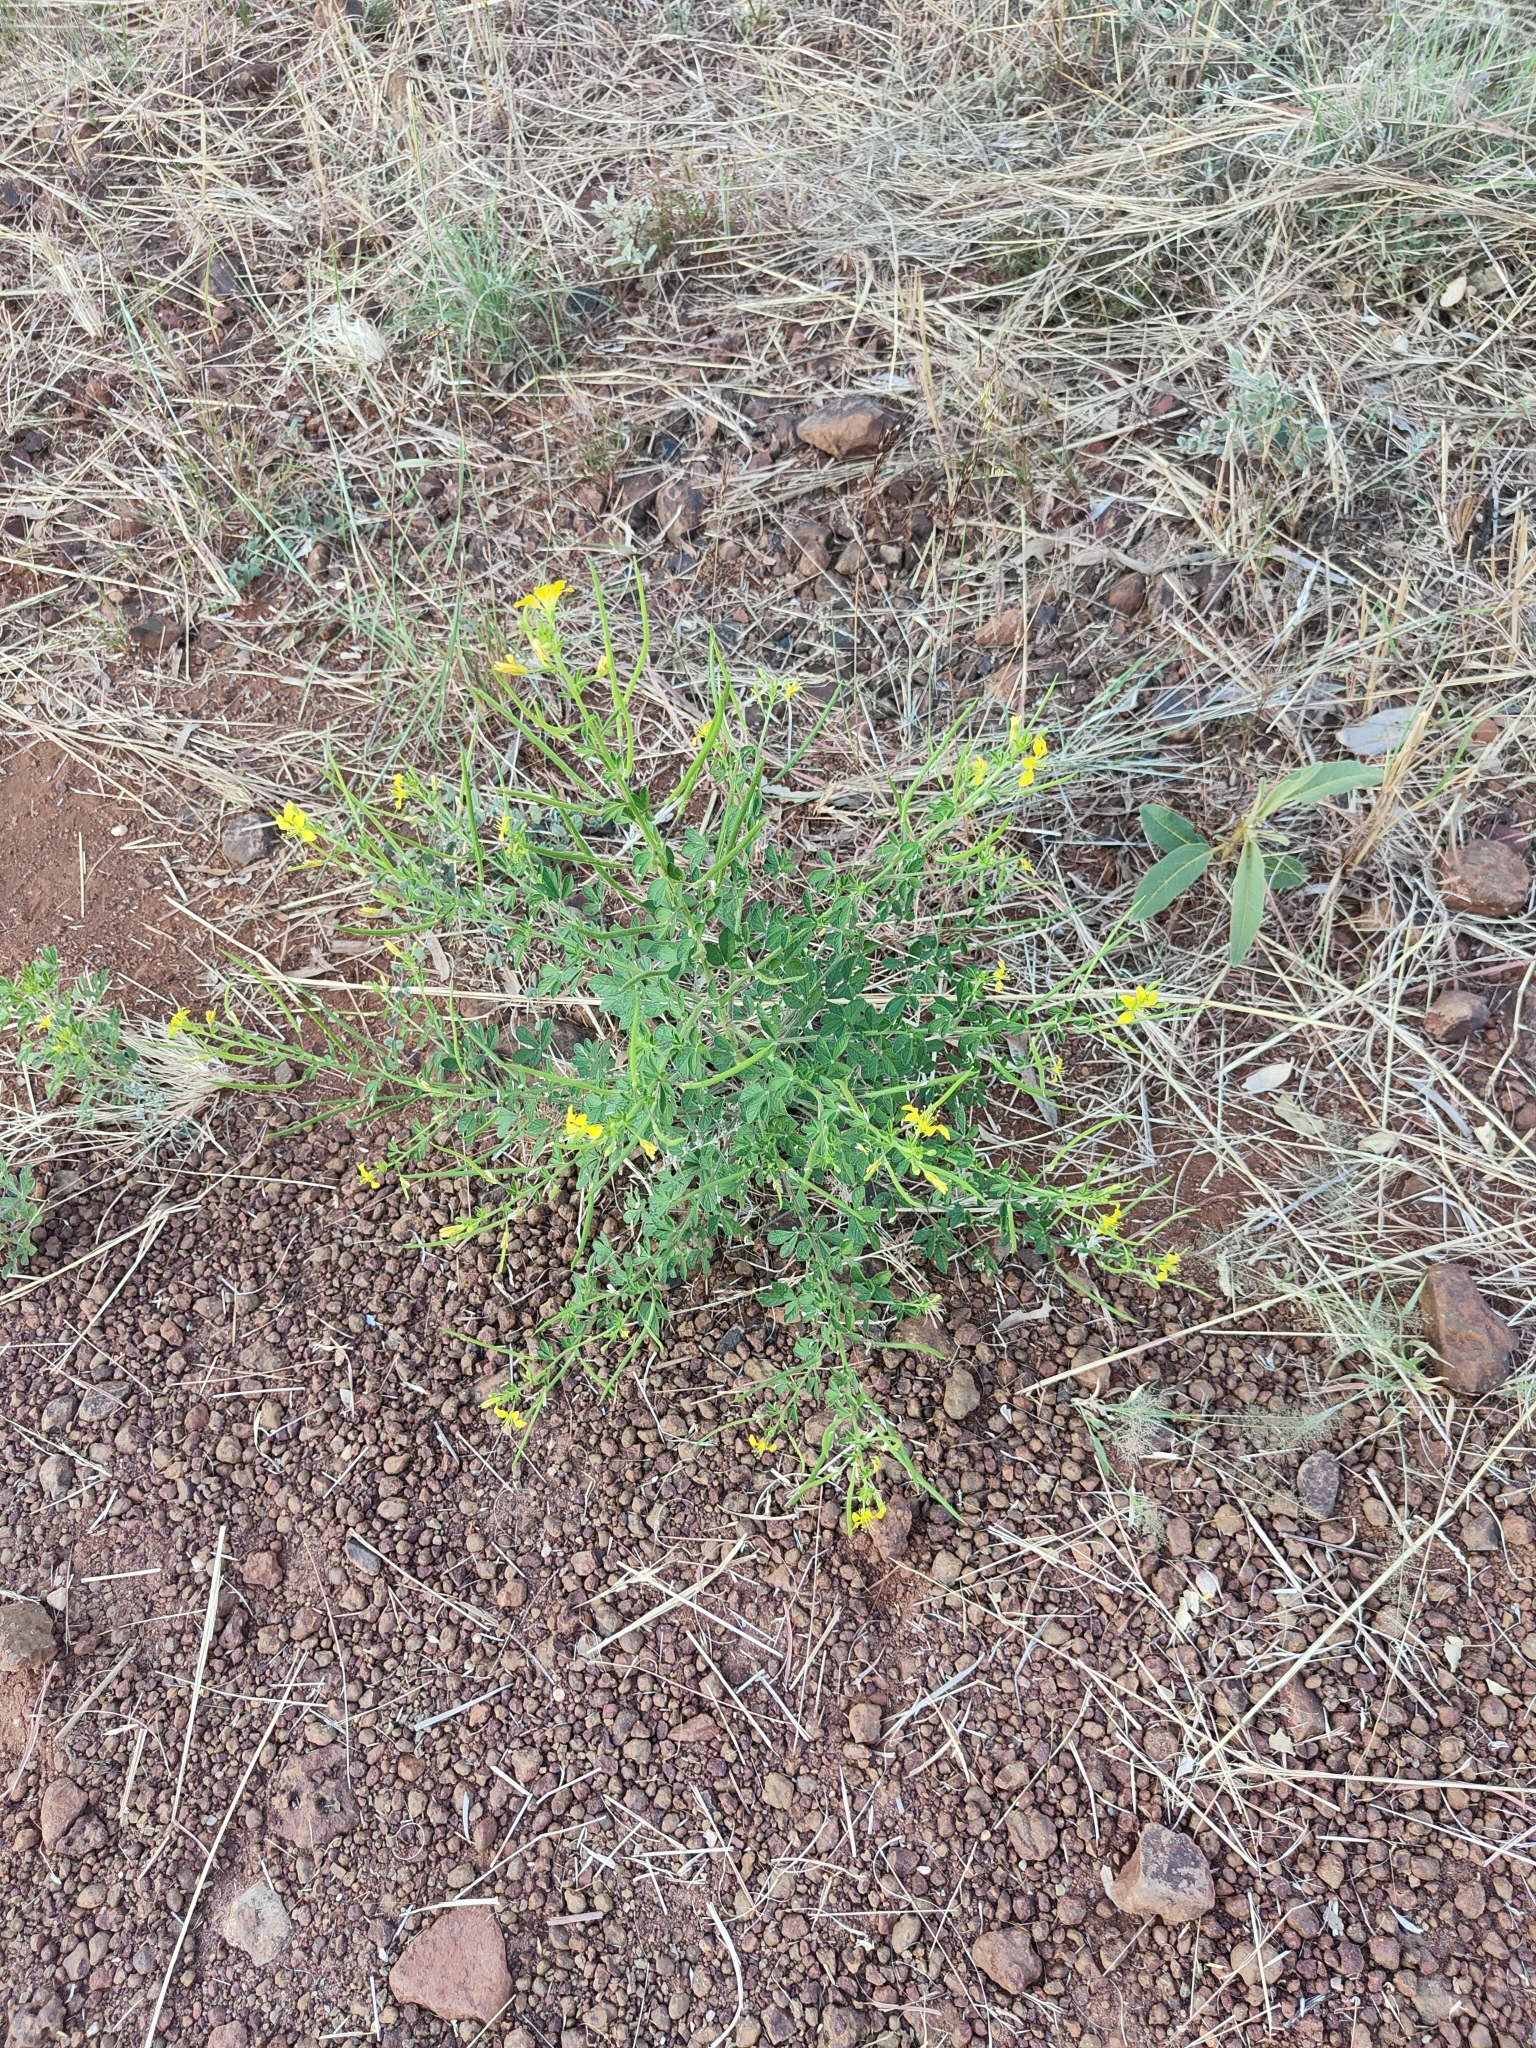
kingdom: Plantae
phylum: Tracheophyta
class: Magnoliopsida
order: Brassicales
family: Cleomaceae
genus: Arivela
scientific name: Arivela viscosa
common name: Asian spiderflower
